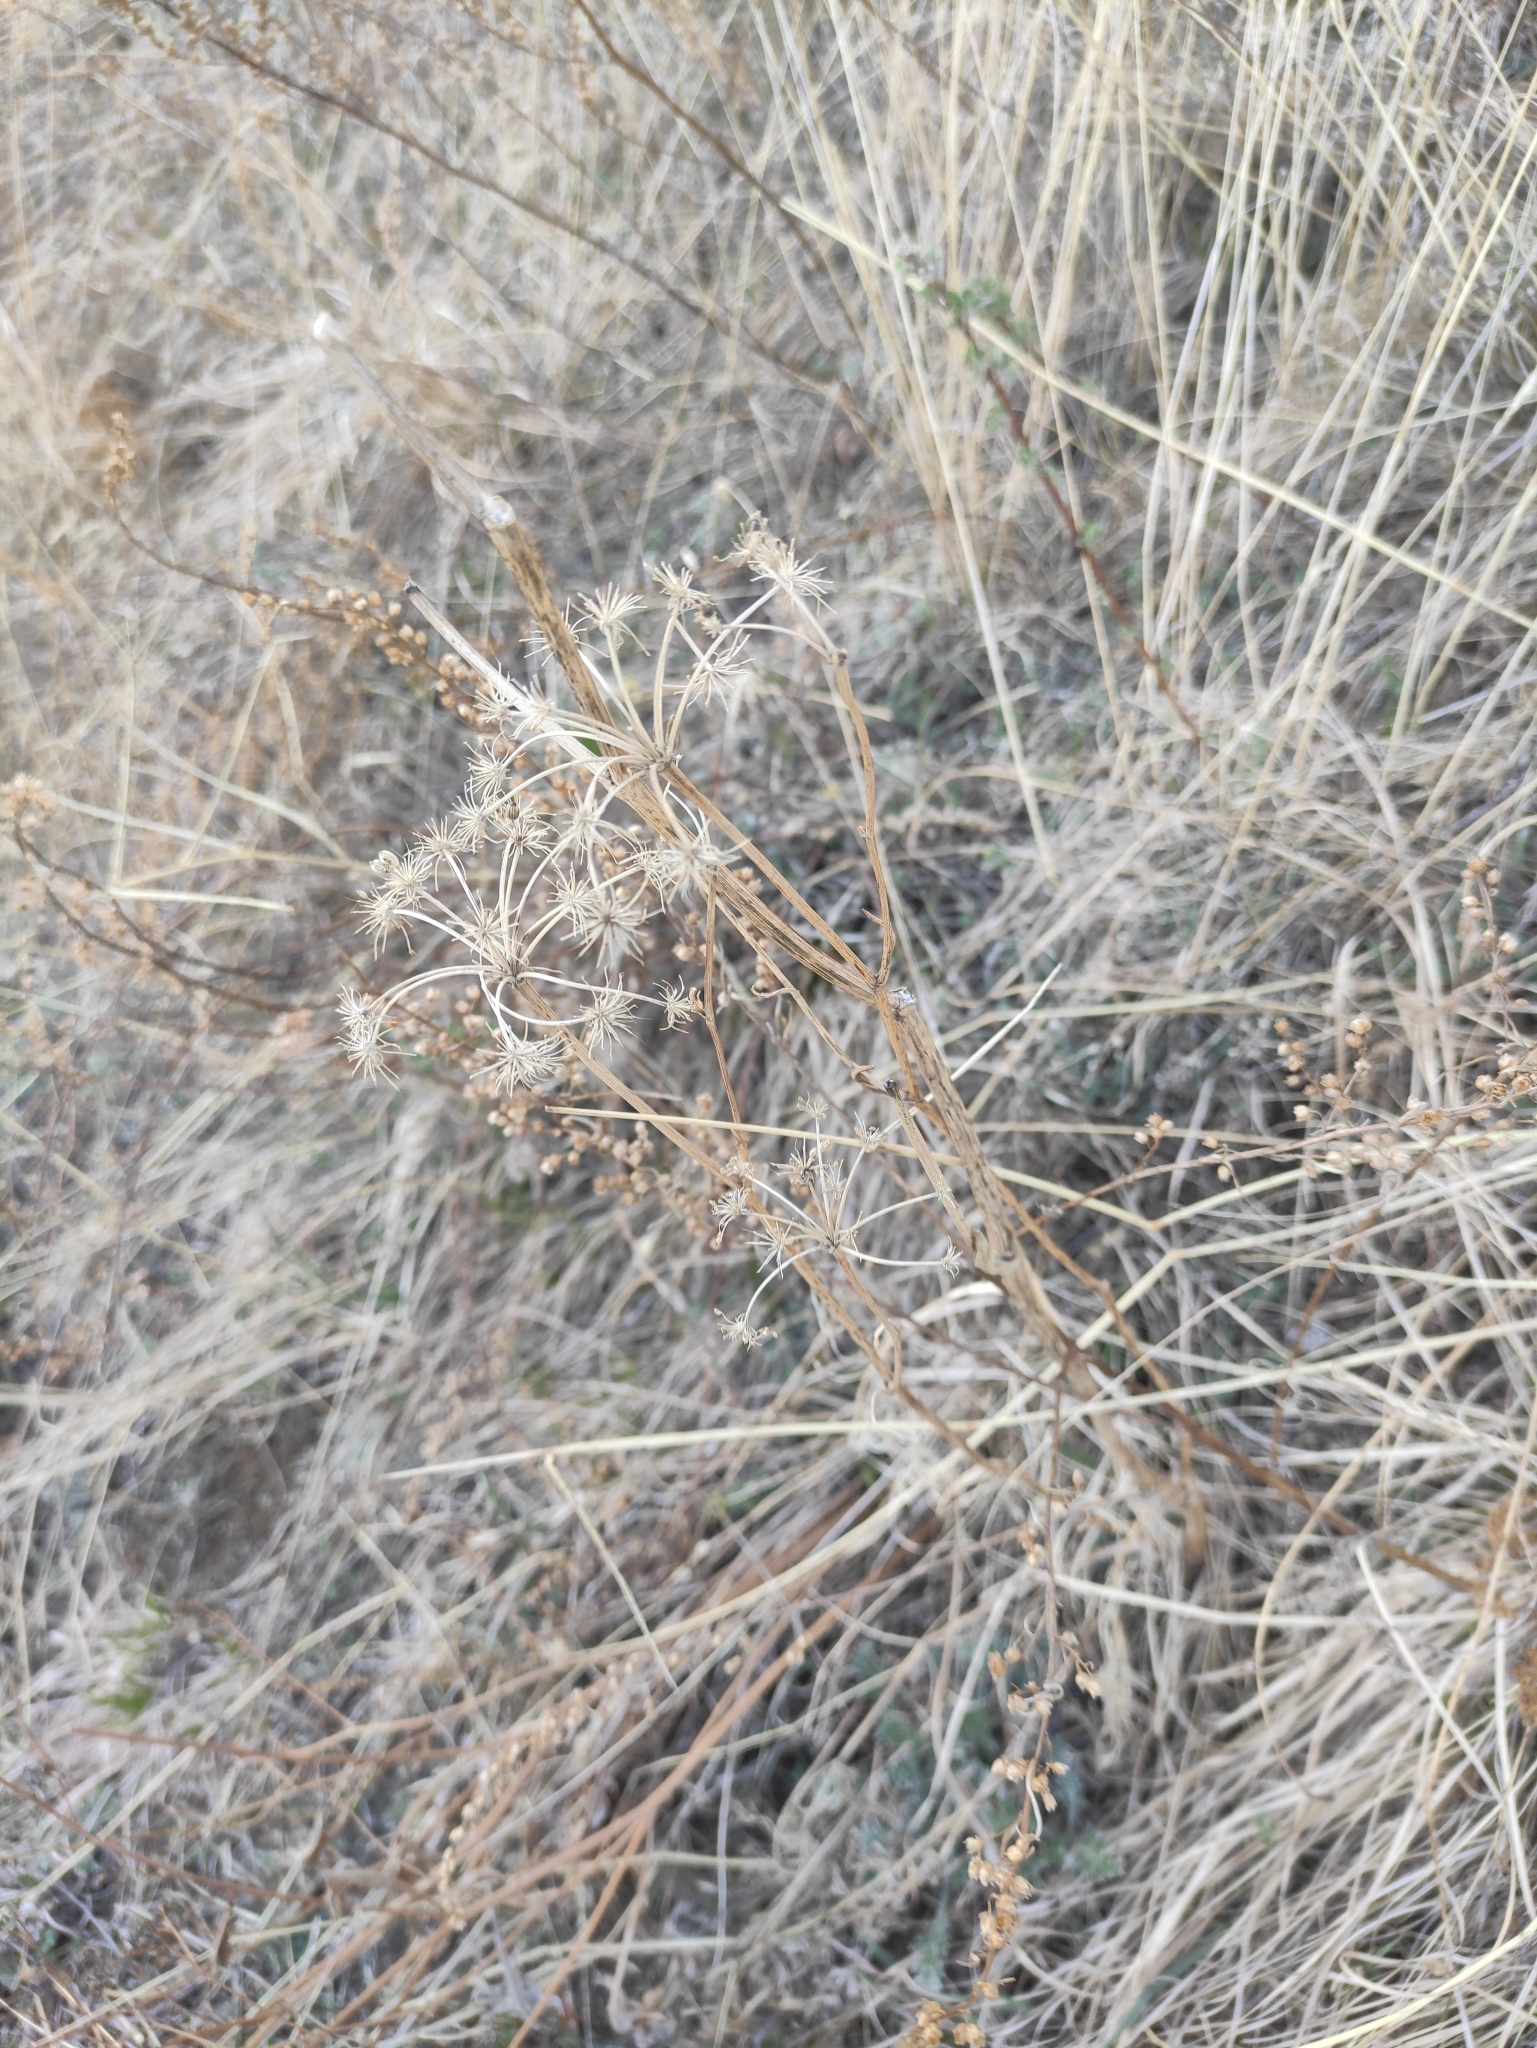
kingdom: Plantae
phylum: Tracheophyta
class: Magnoliopsida
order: Apiales
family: Apiaceae
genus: Kitagawia
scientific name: Kitagawia baicalensis
